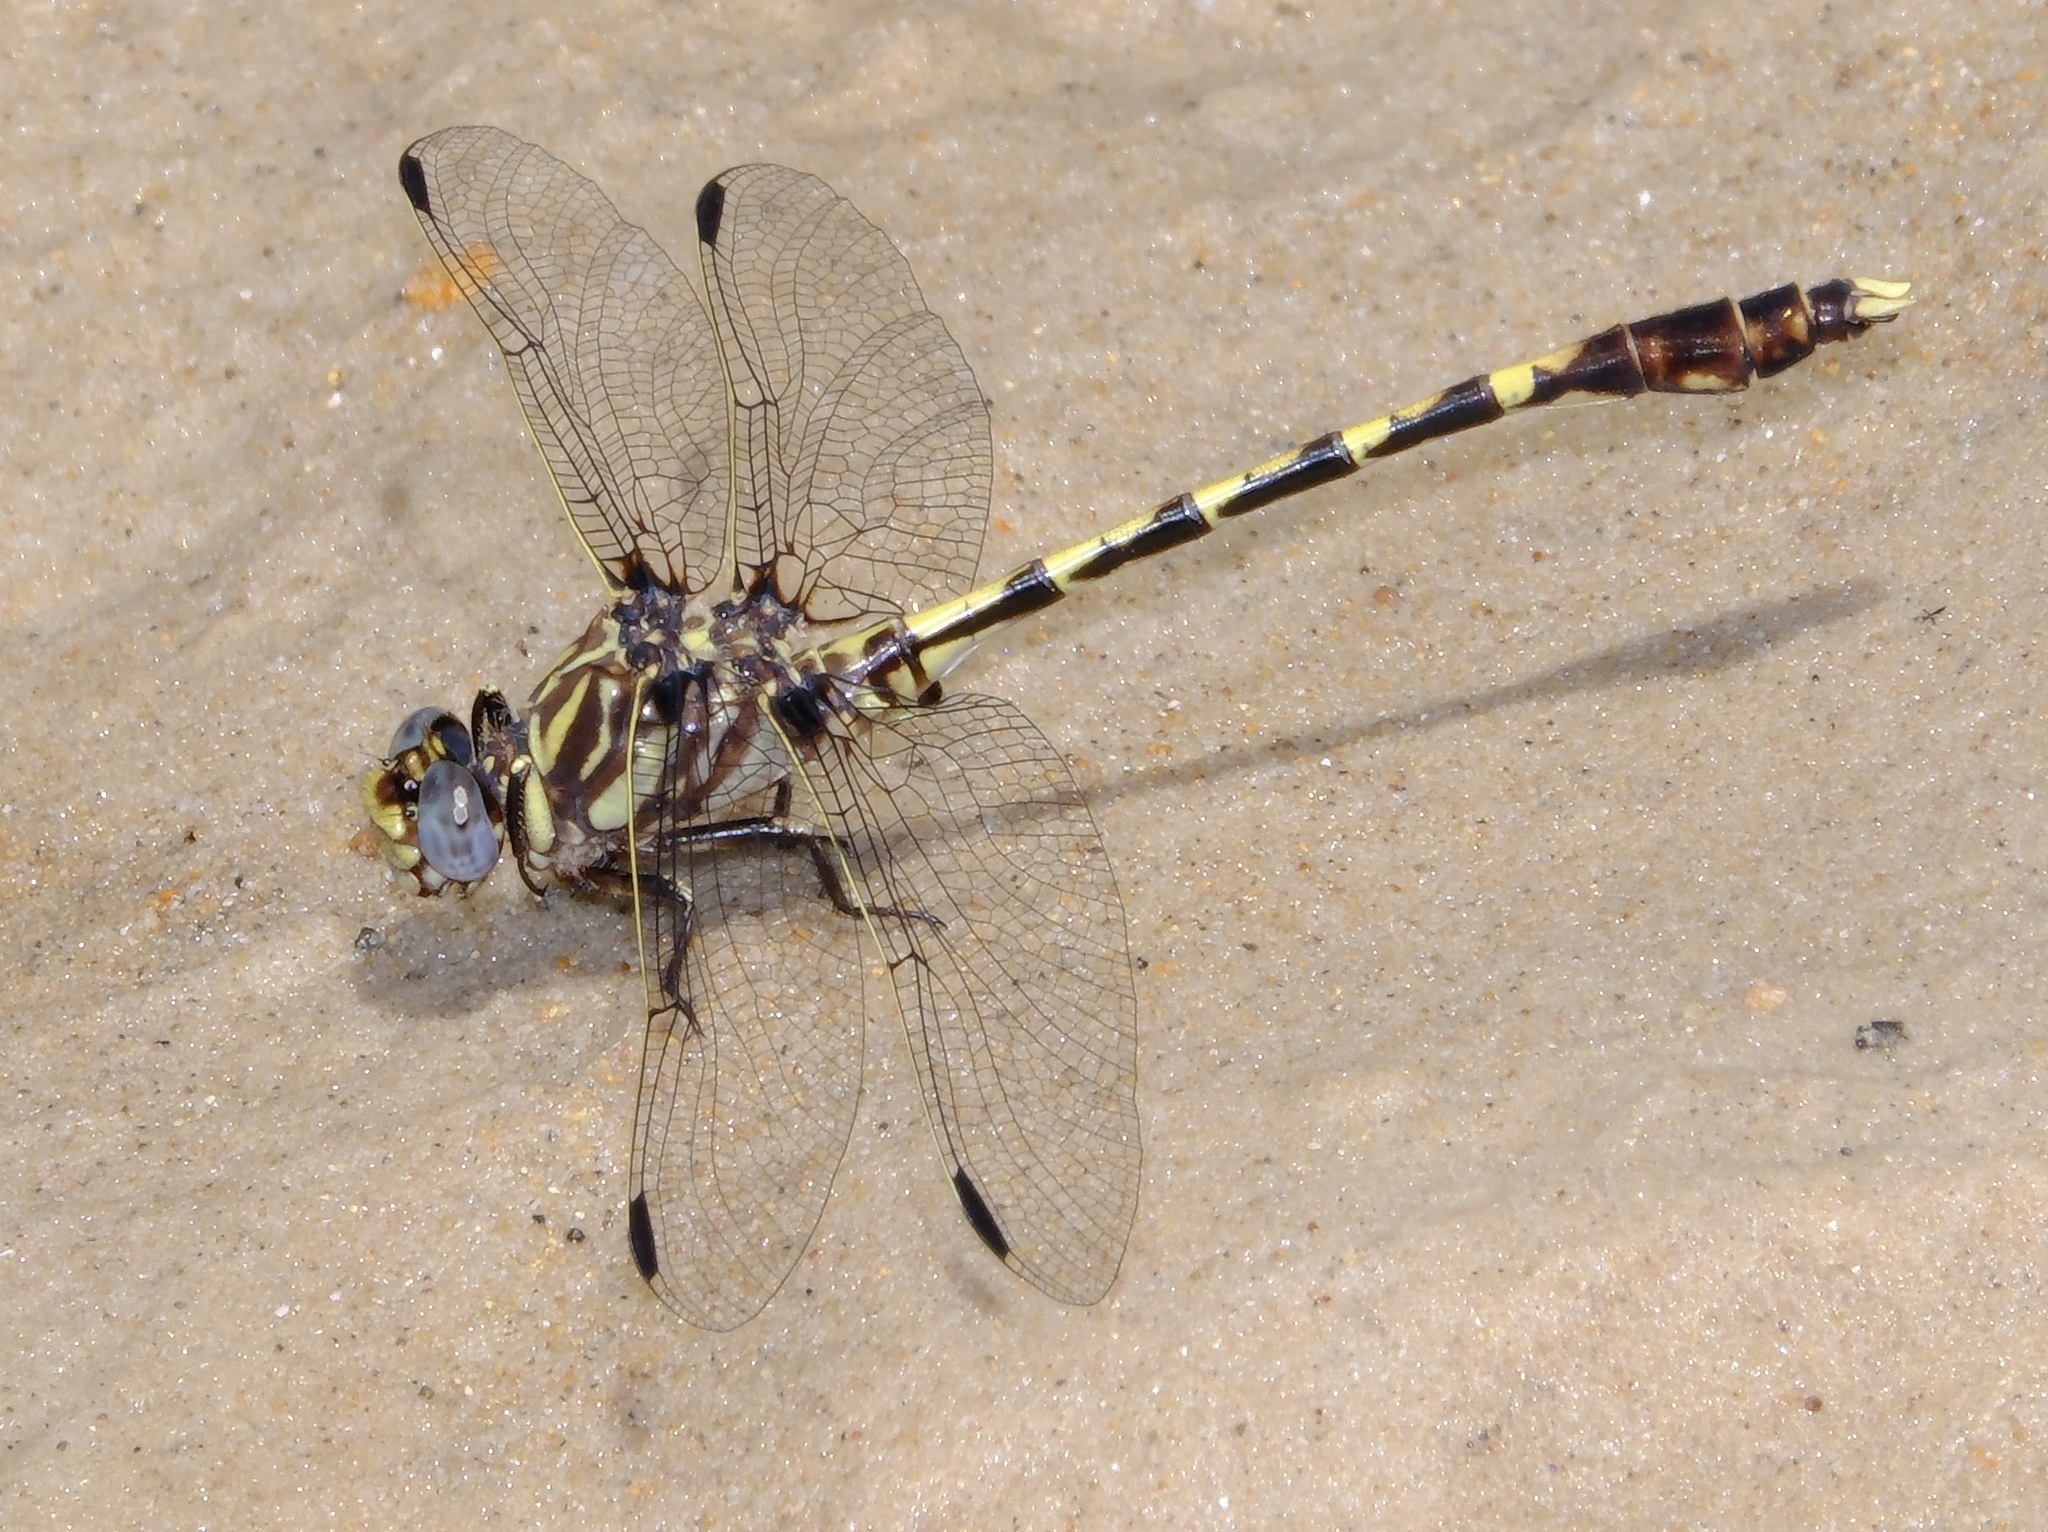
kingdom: Animalia
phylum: Arthropoda
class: Insecta
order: Odonata
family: Gomphidae
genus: Progomphus
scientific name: Progomphus obscurus
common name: Common sanddragon
